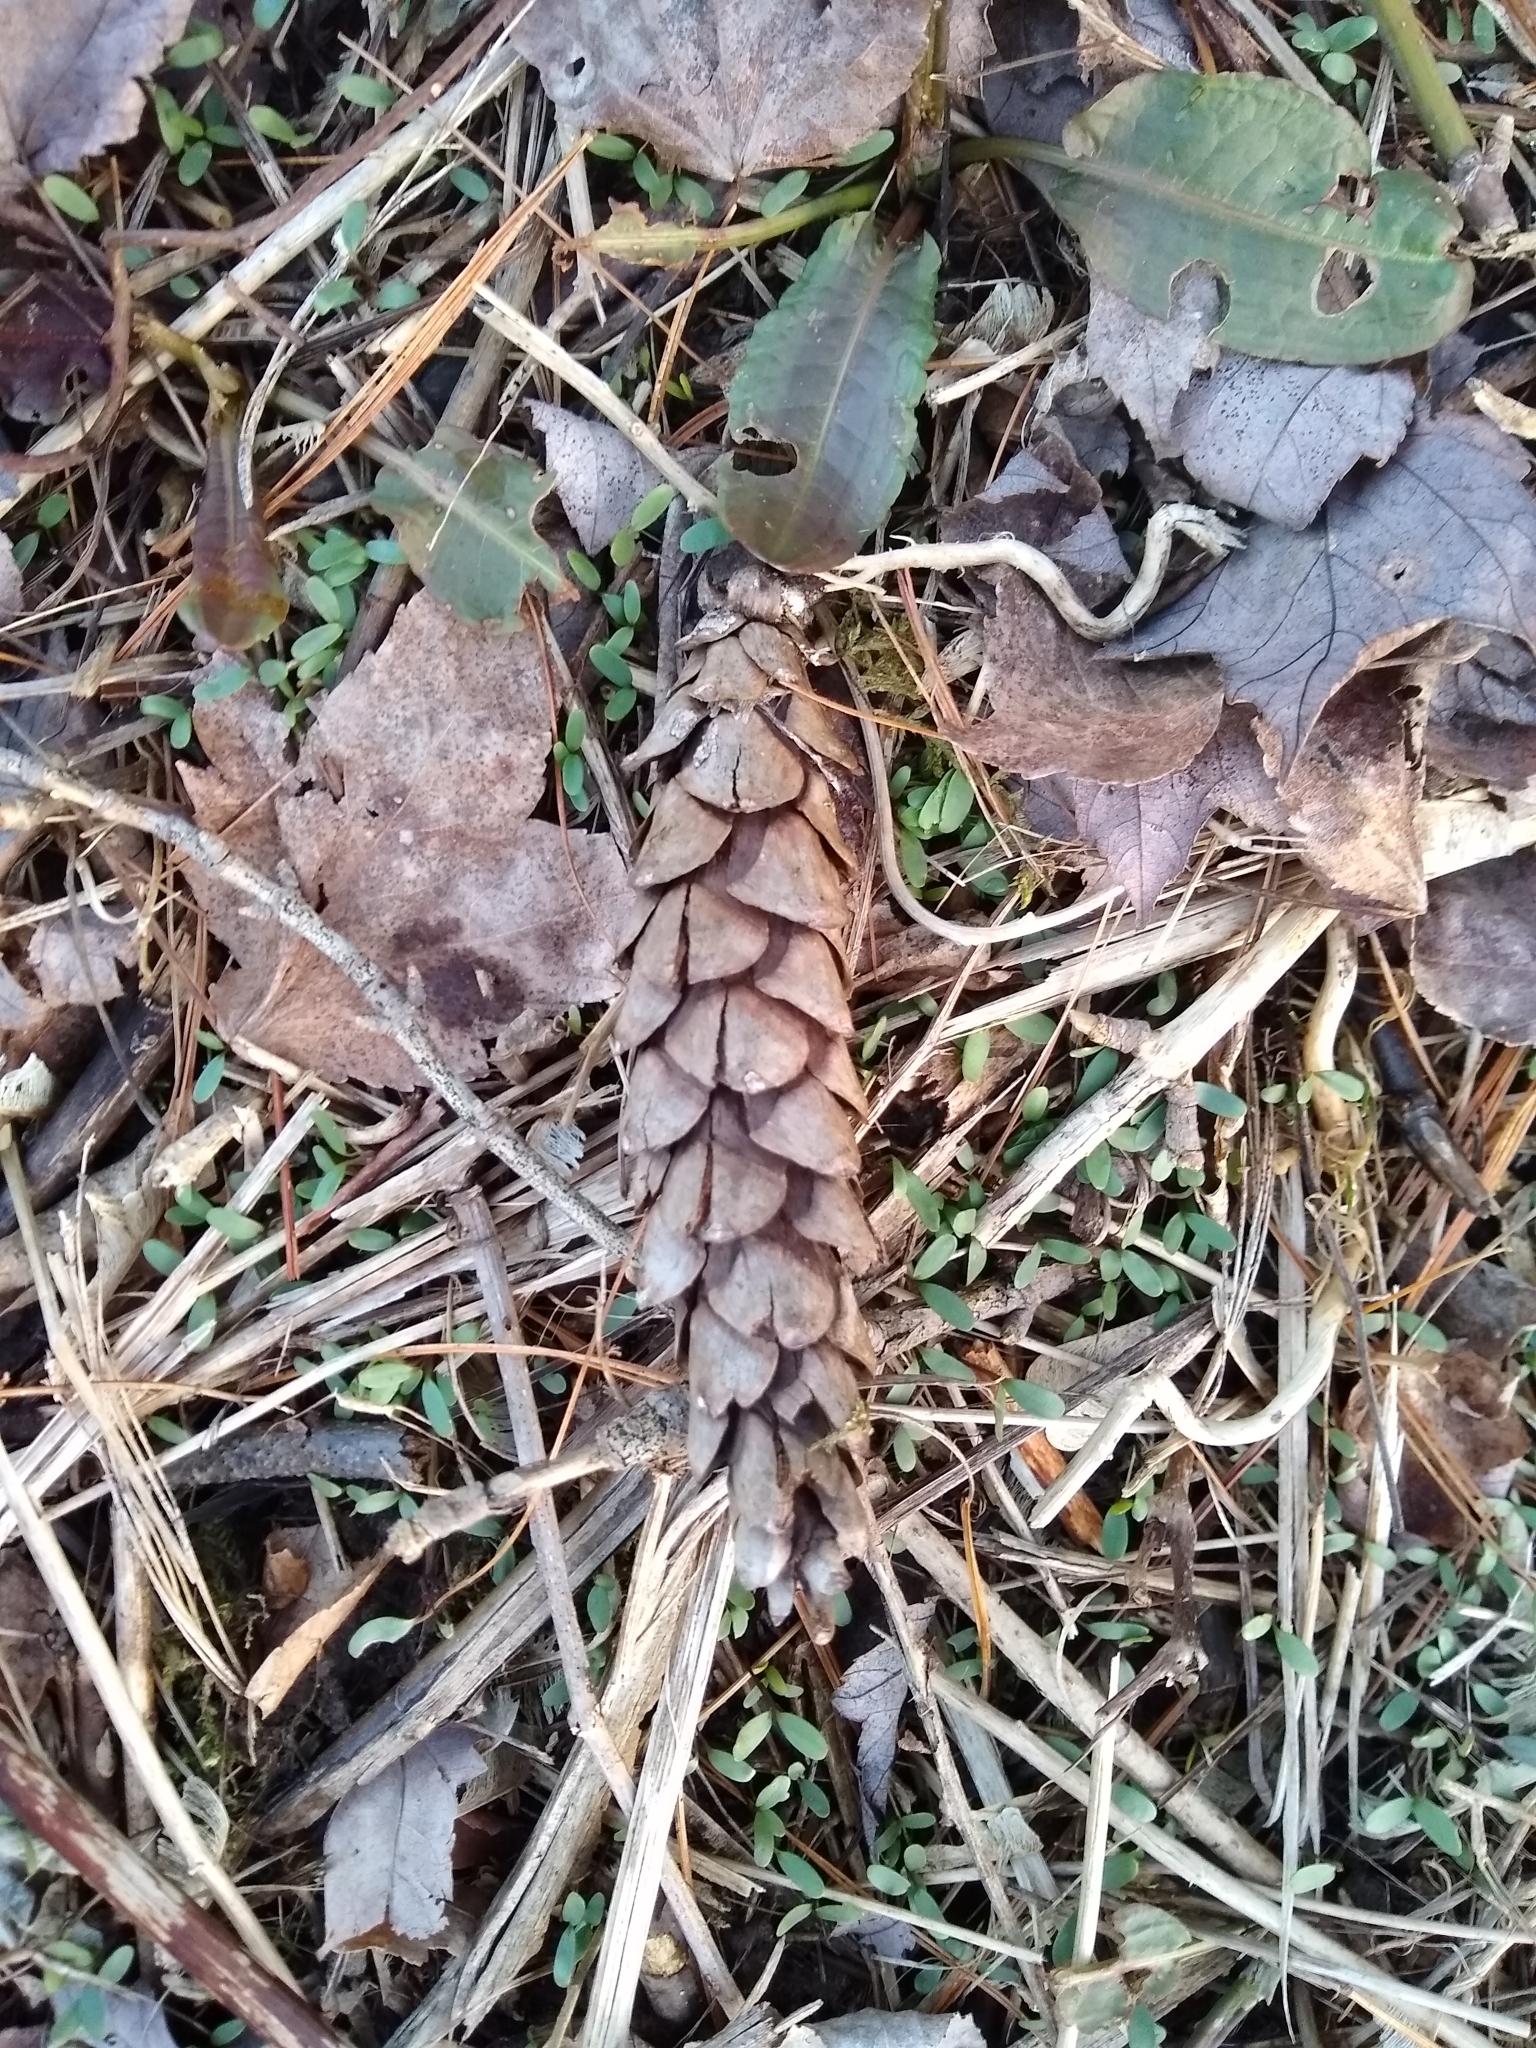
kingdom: Plantae
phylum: Tracheophyta
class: Pinopsida
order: Pinales
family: Pinaceae
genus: Pinus
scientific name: Pinus strobus
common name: Weymouth pine
